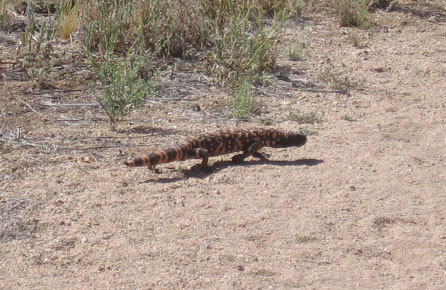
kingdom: Animalia
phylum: Chordata
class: Squamata
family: Helodermatidae
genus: Heloderma
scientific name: Heloderma suspectum
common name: Gila monster
